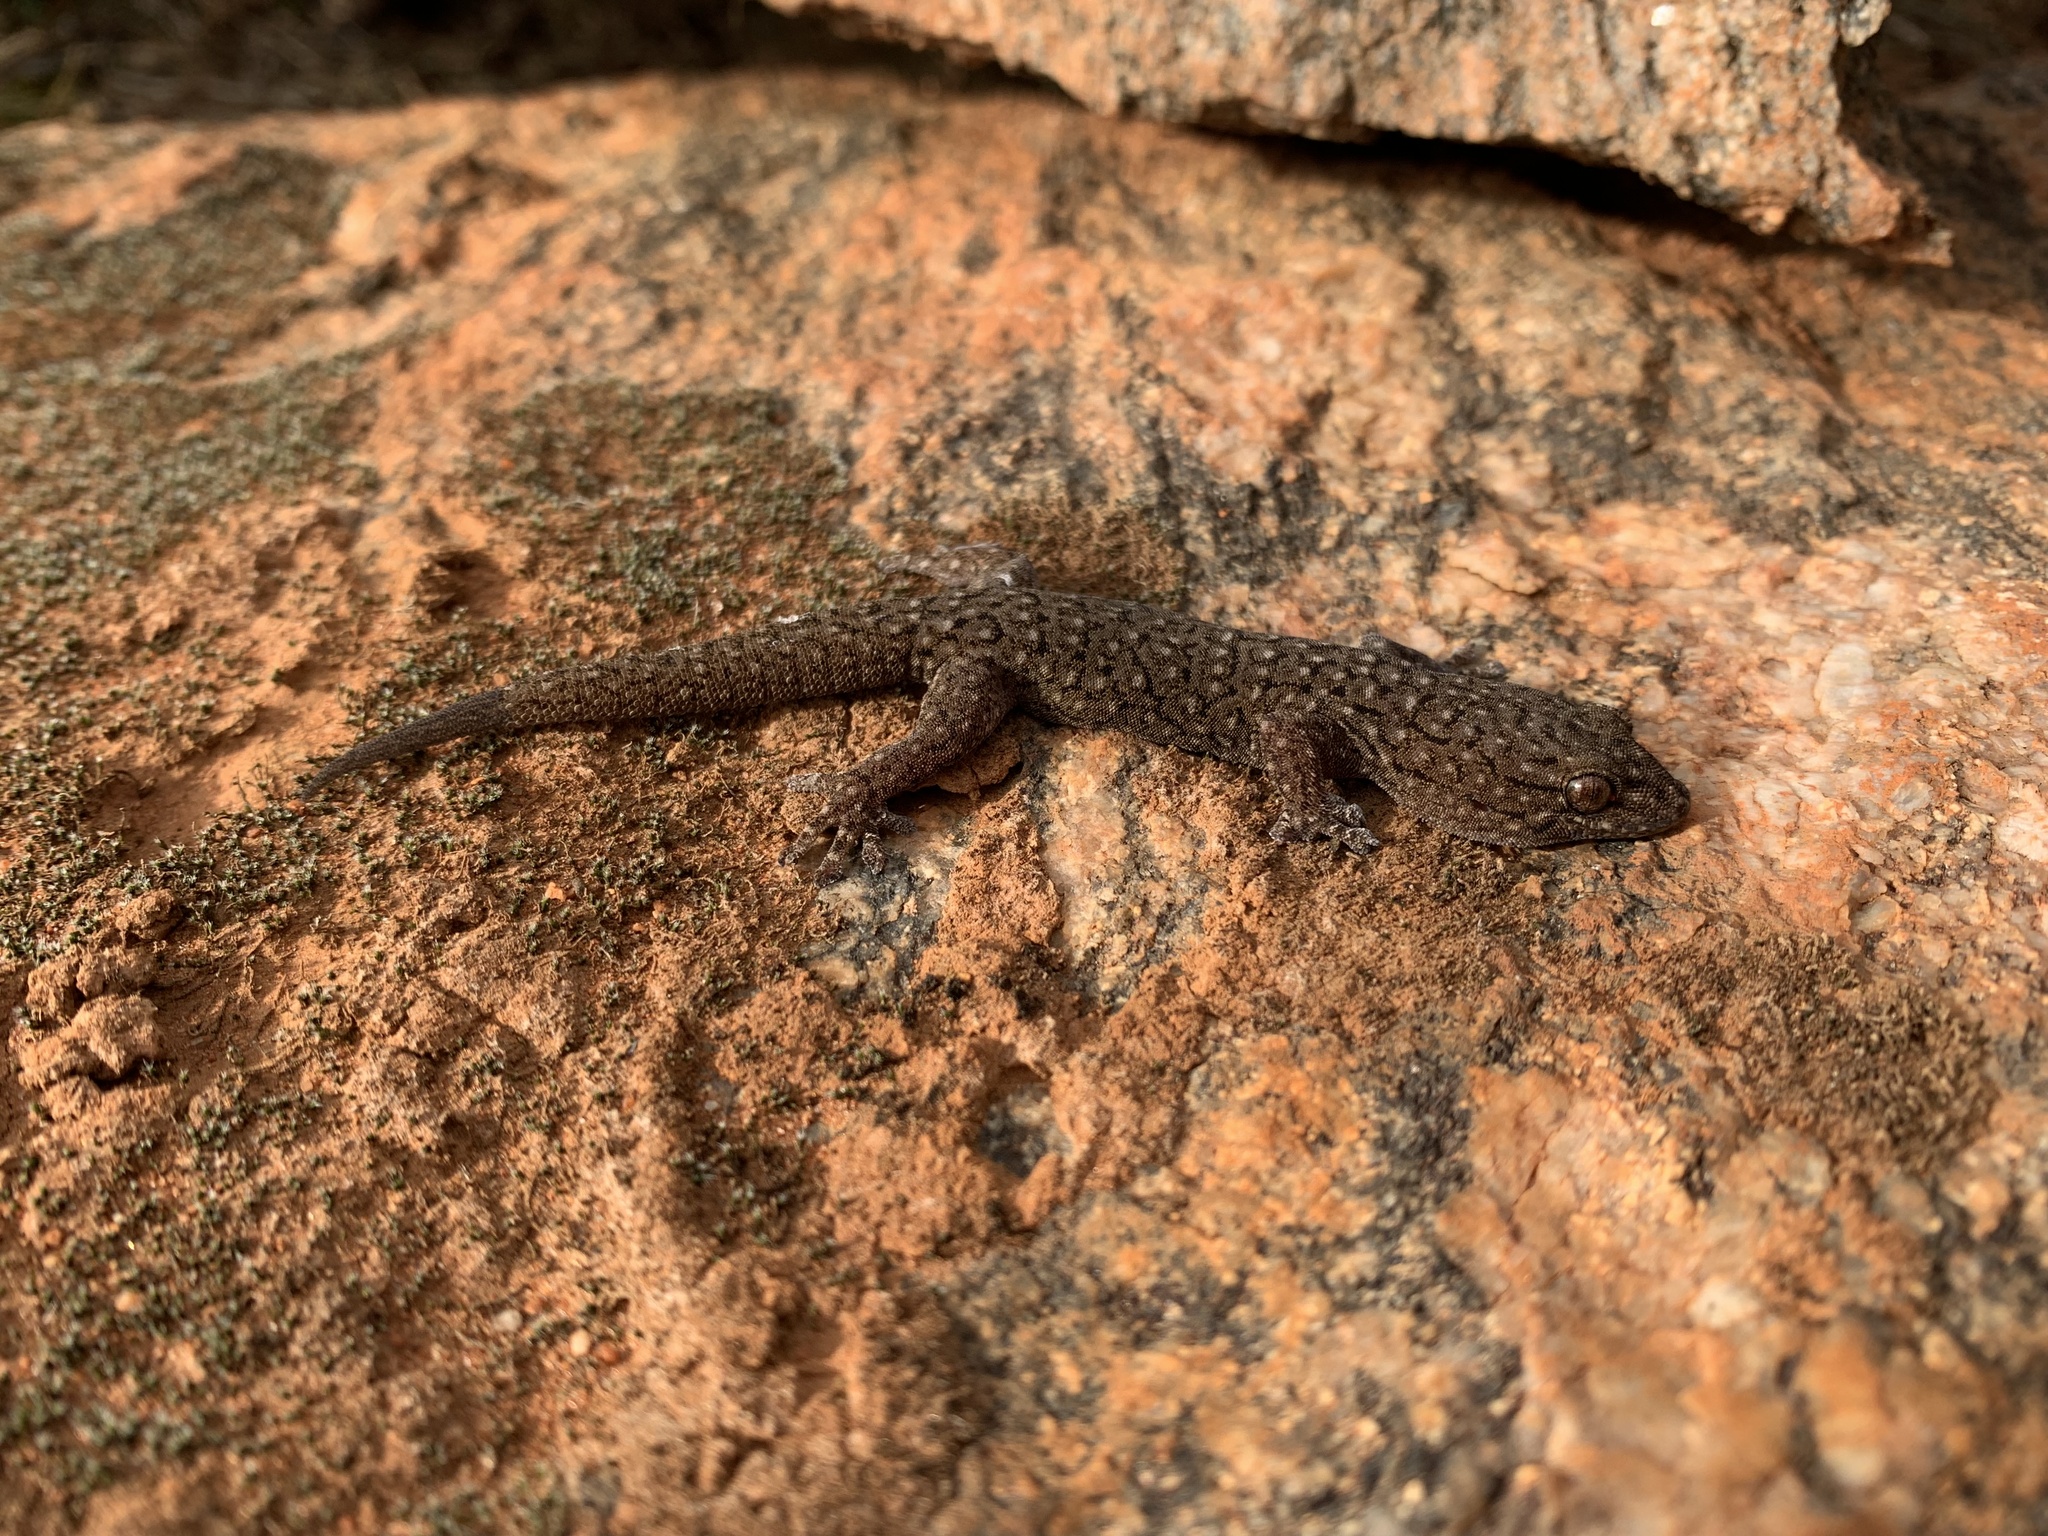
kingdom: Animalia
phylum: Chordata
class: Squamata
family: Gekkonidae
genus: Gehyra
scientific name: Gehyra lazelli
